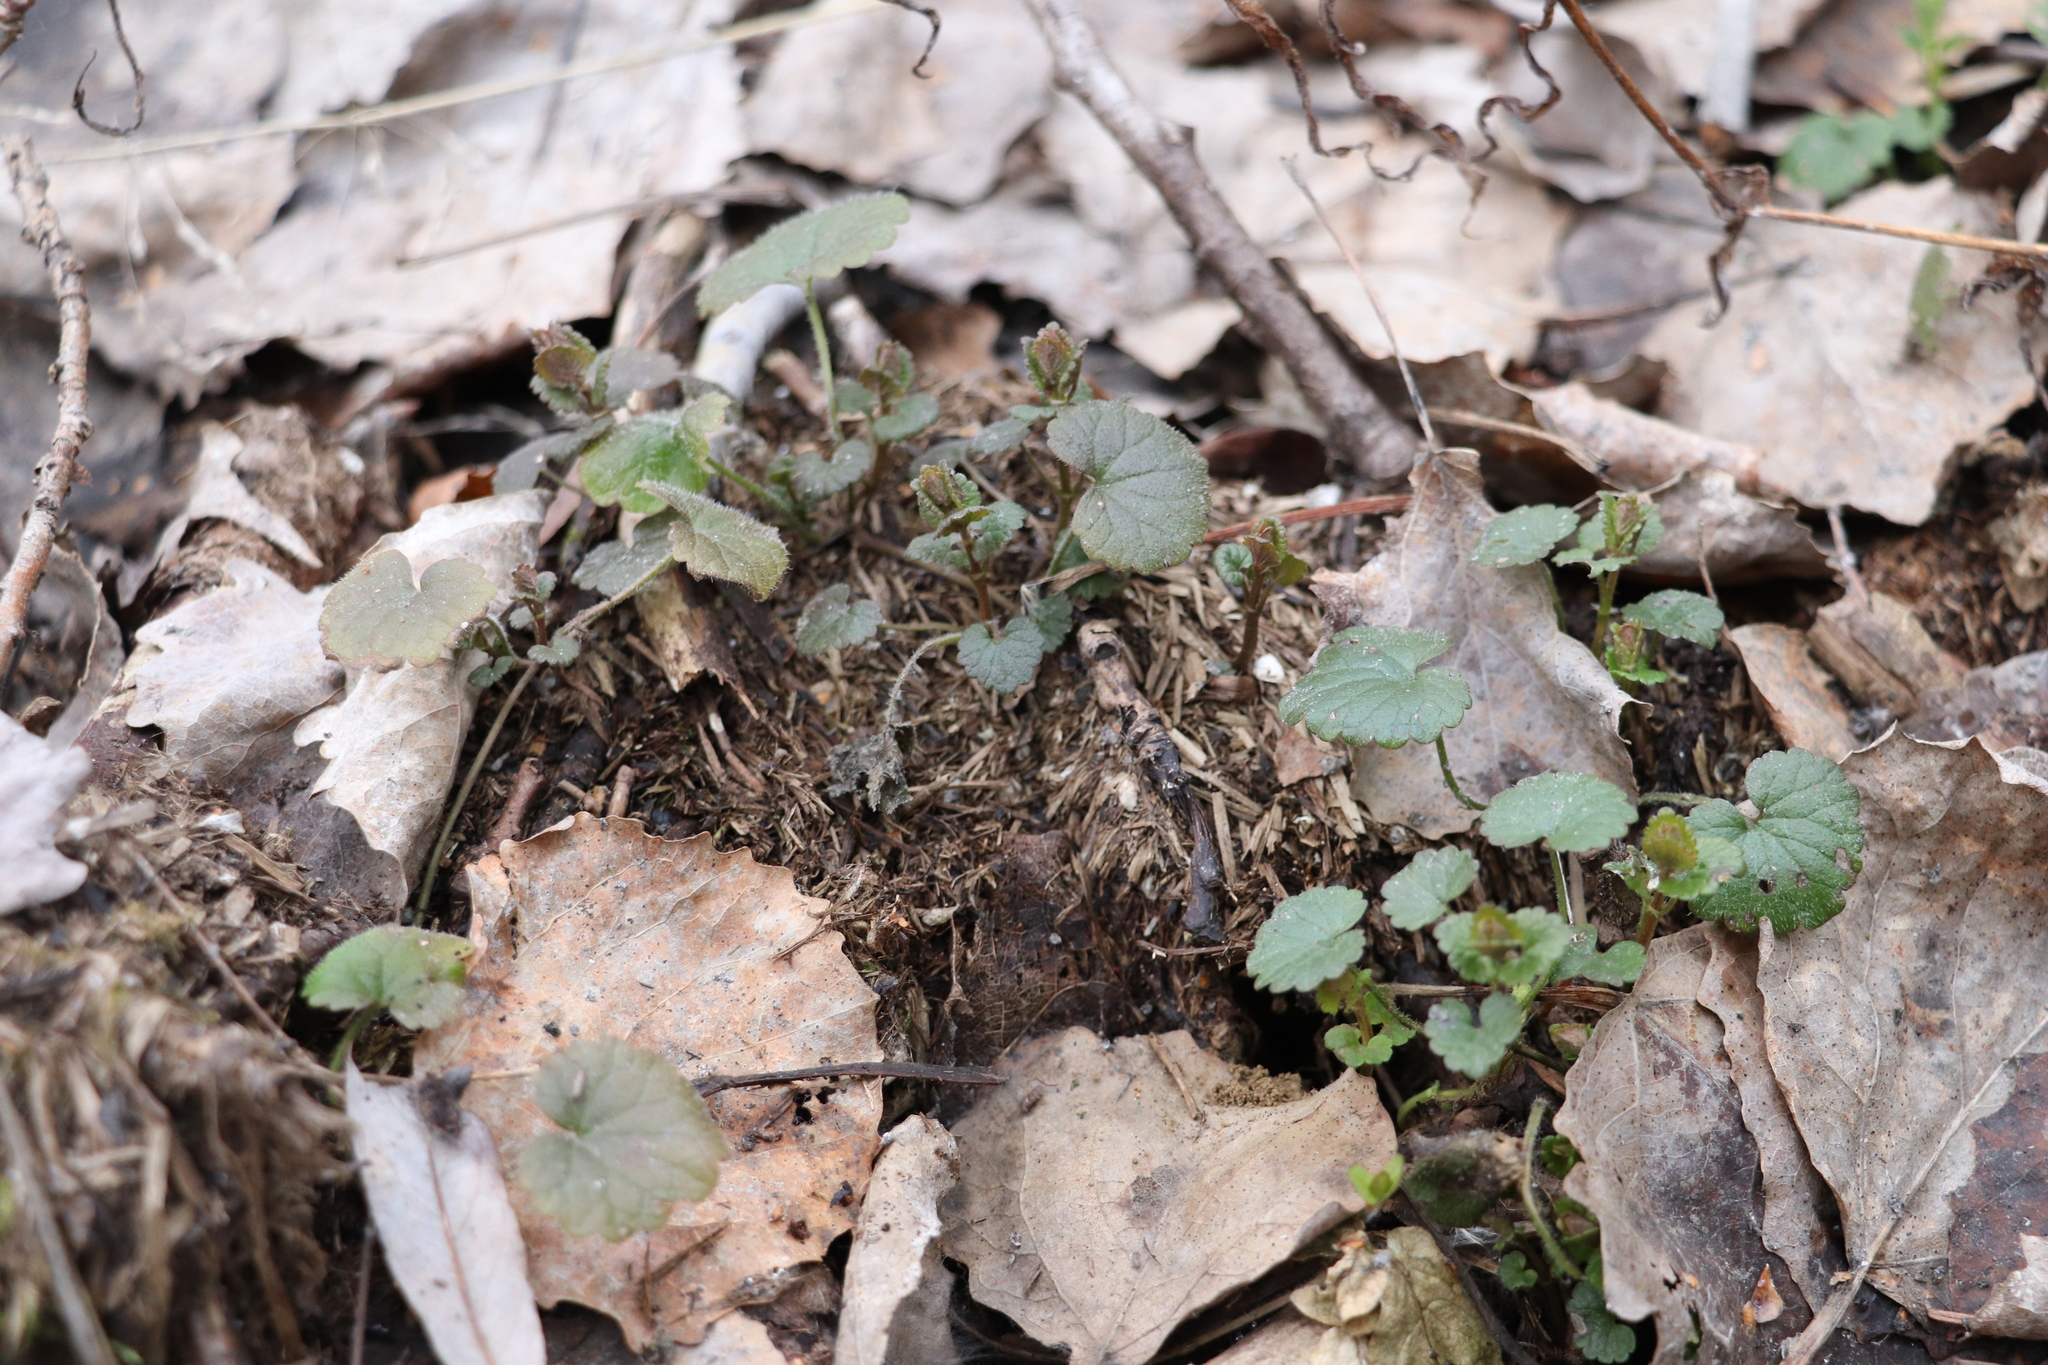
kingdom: Plantae
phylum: Tracheophyta
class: Magnoliopsida
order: Lamiales
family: Lamiaceae
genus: Glechoma
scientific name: Glechoma hederacea
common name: Ground ivy
